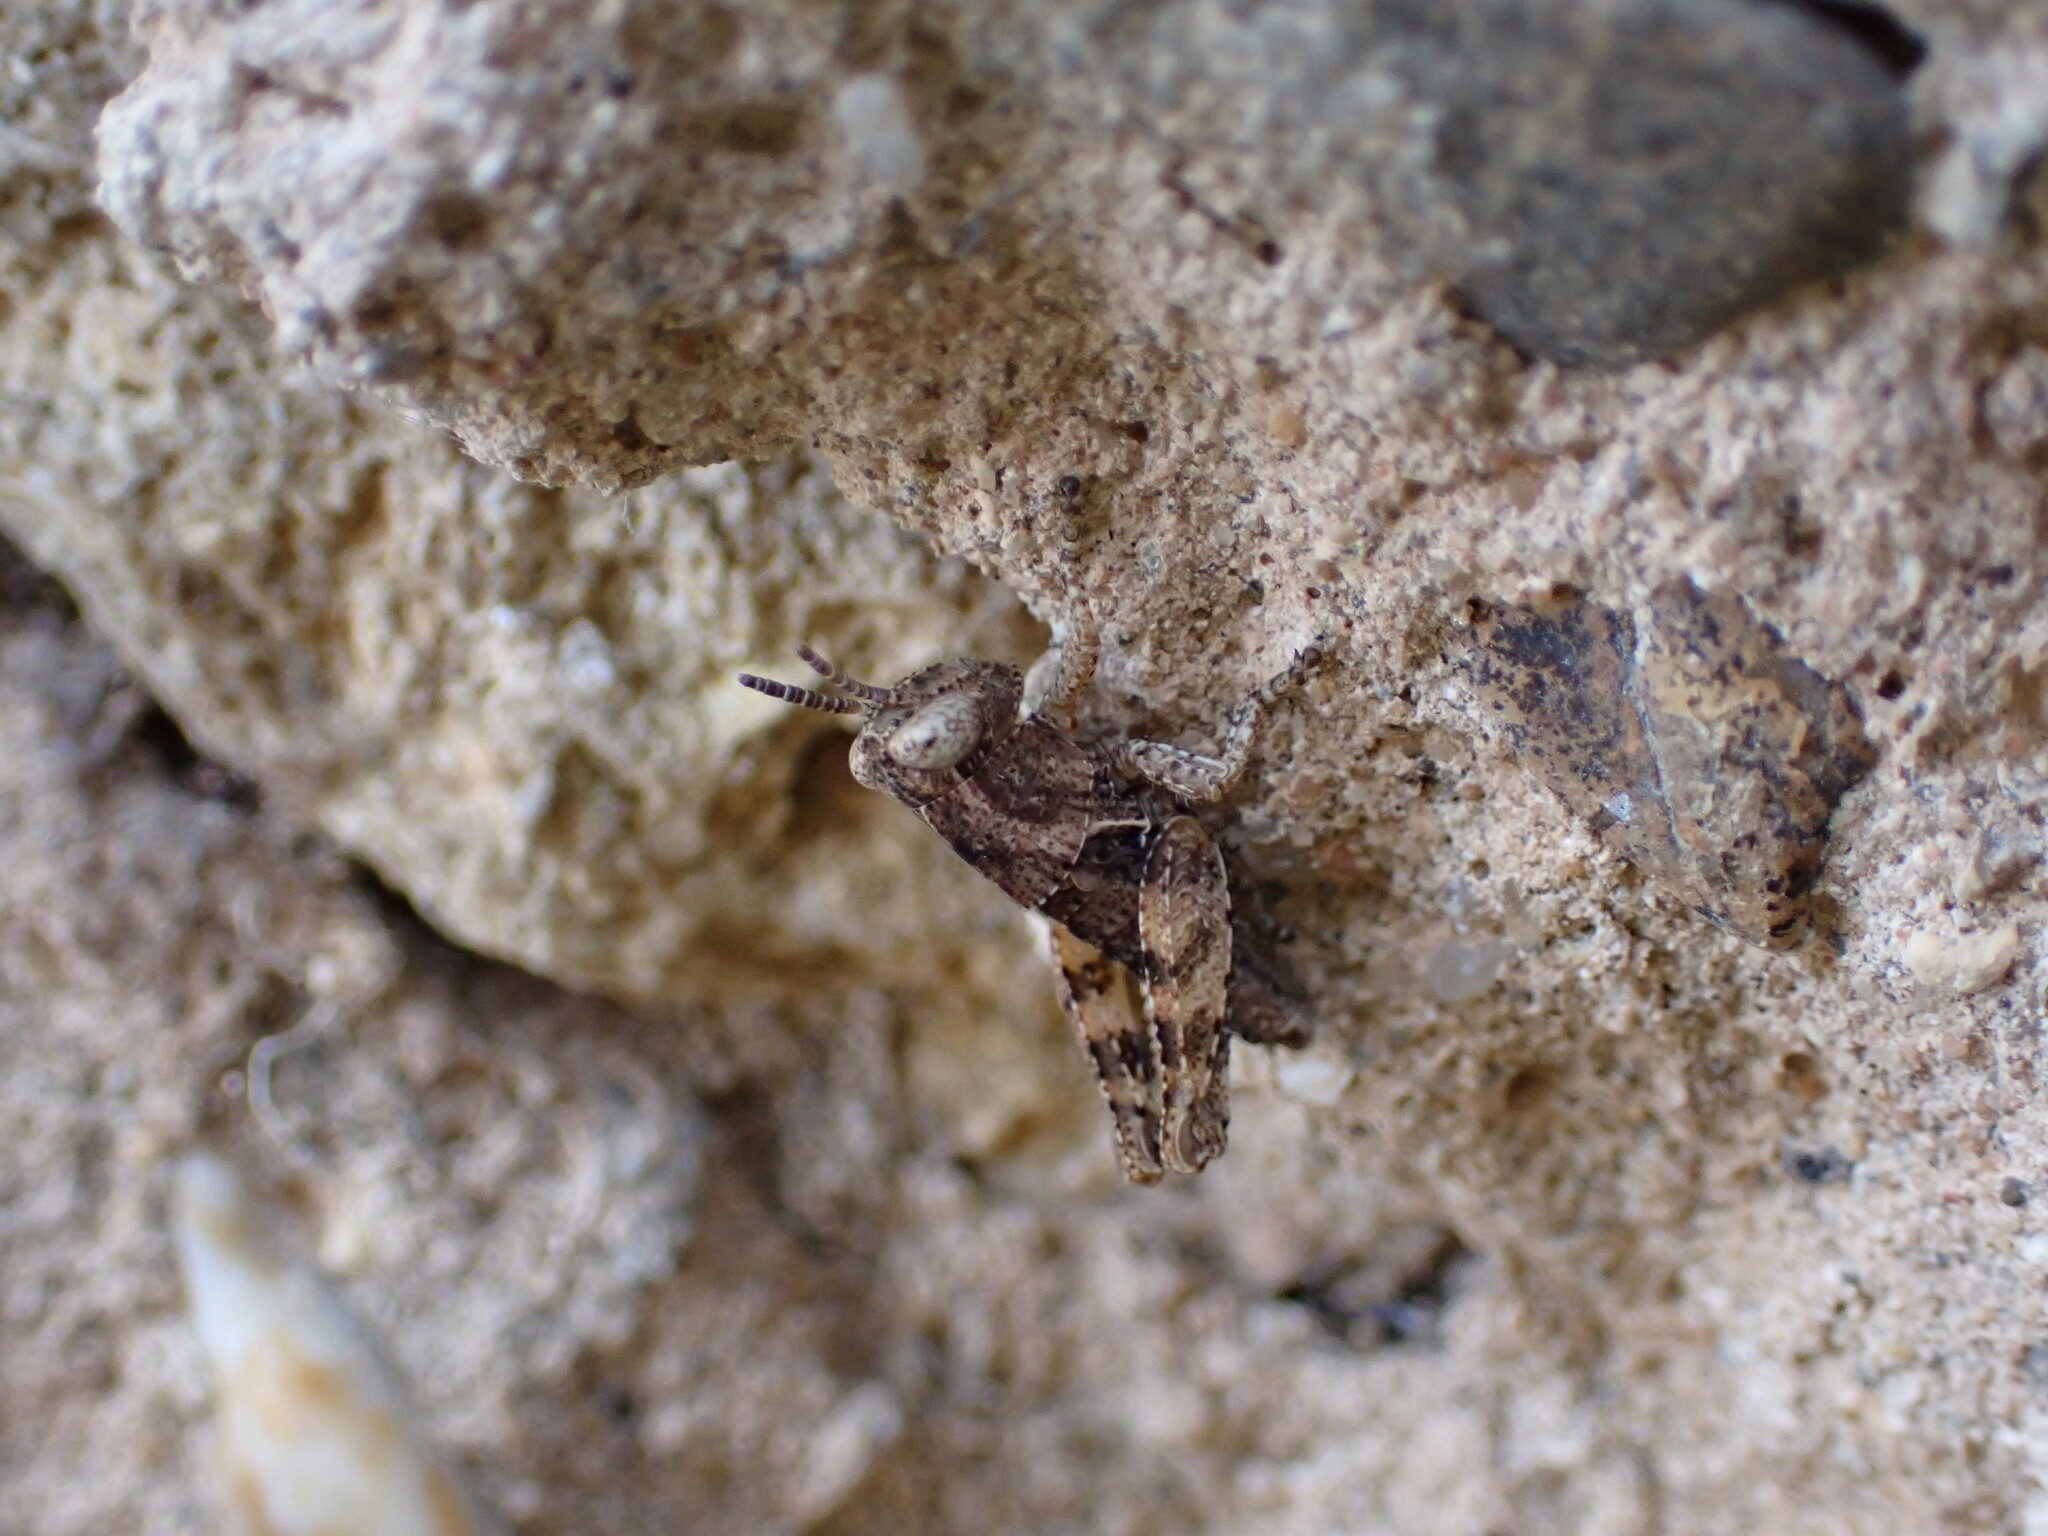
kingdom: Animalia
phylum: Arthropoda
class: Insecta
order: Orthoptera
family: Acrididae
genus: Pezotettix
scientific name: Pezotettix giornae
